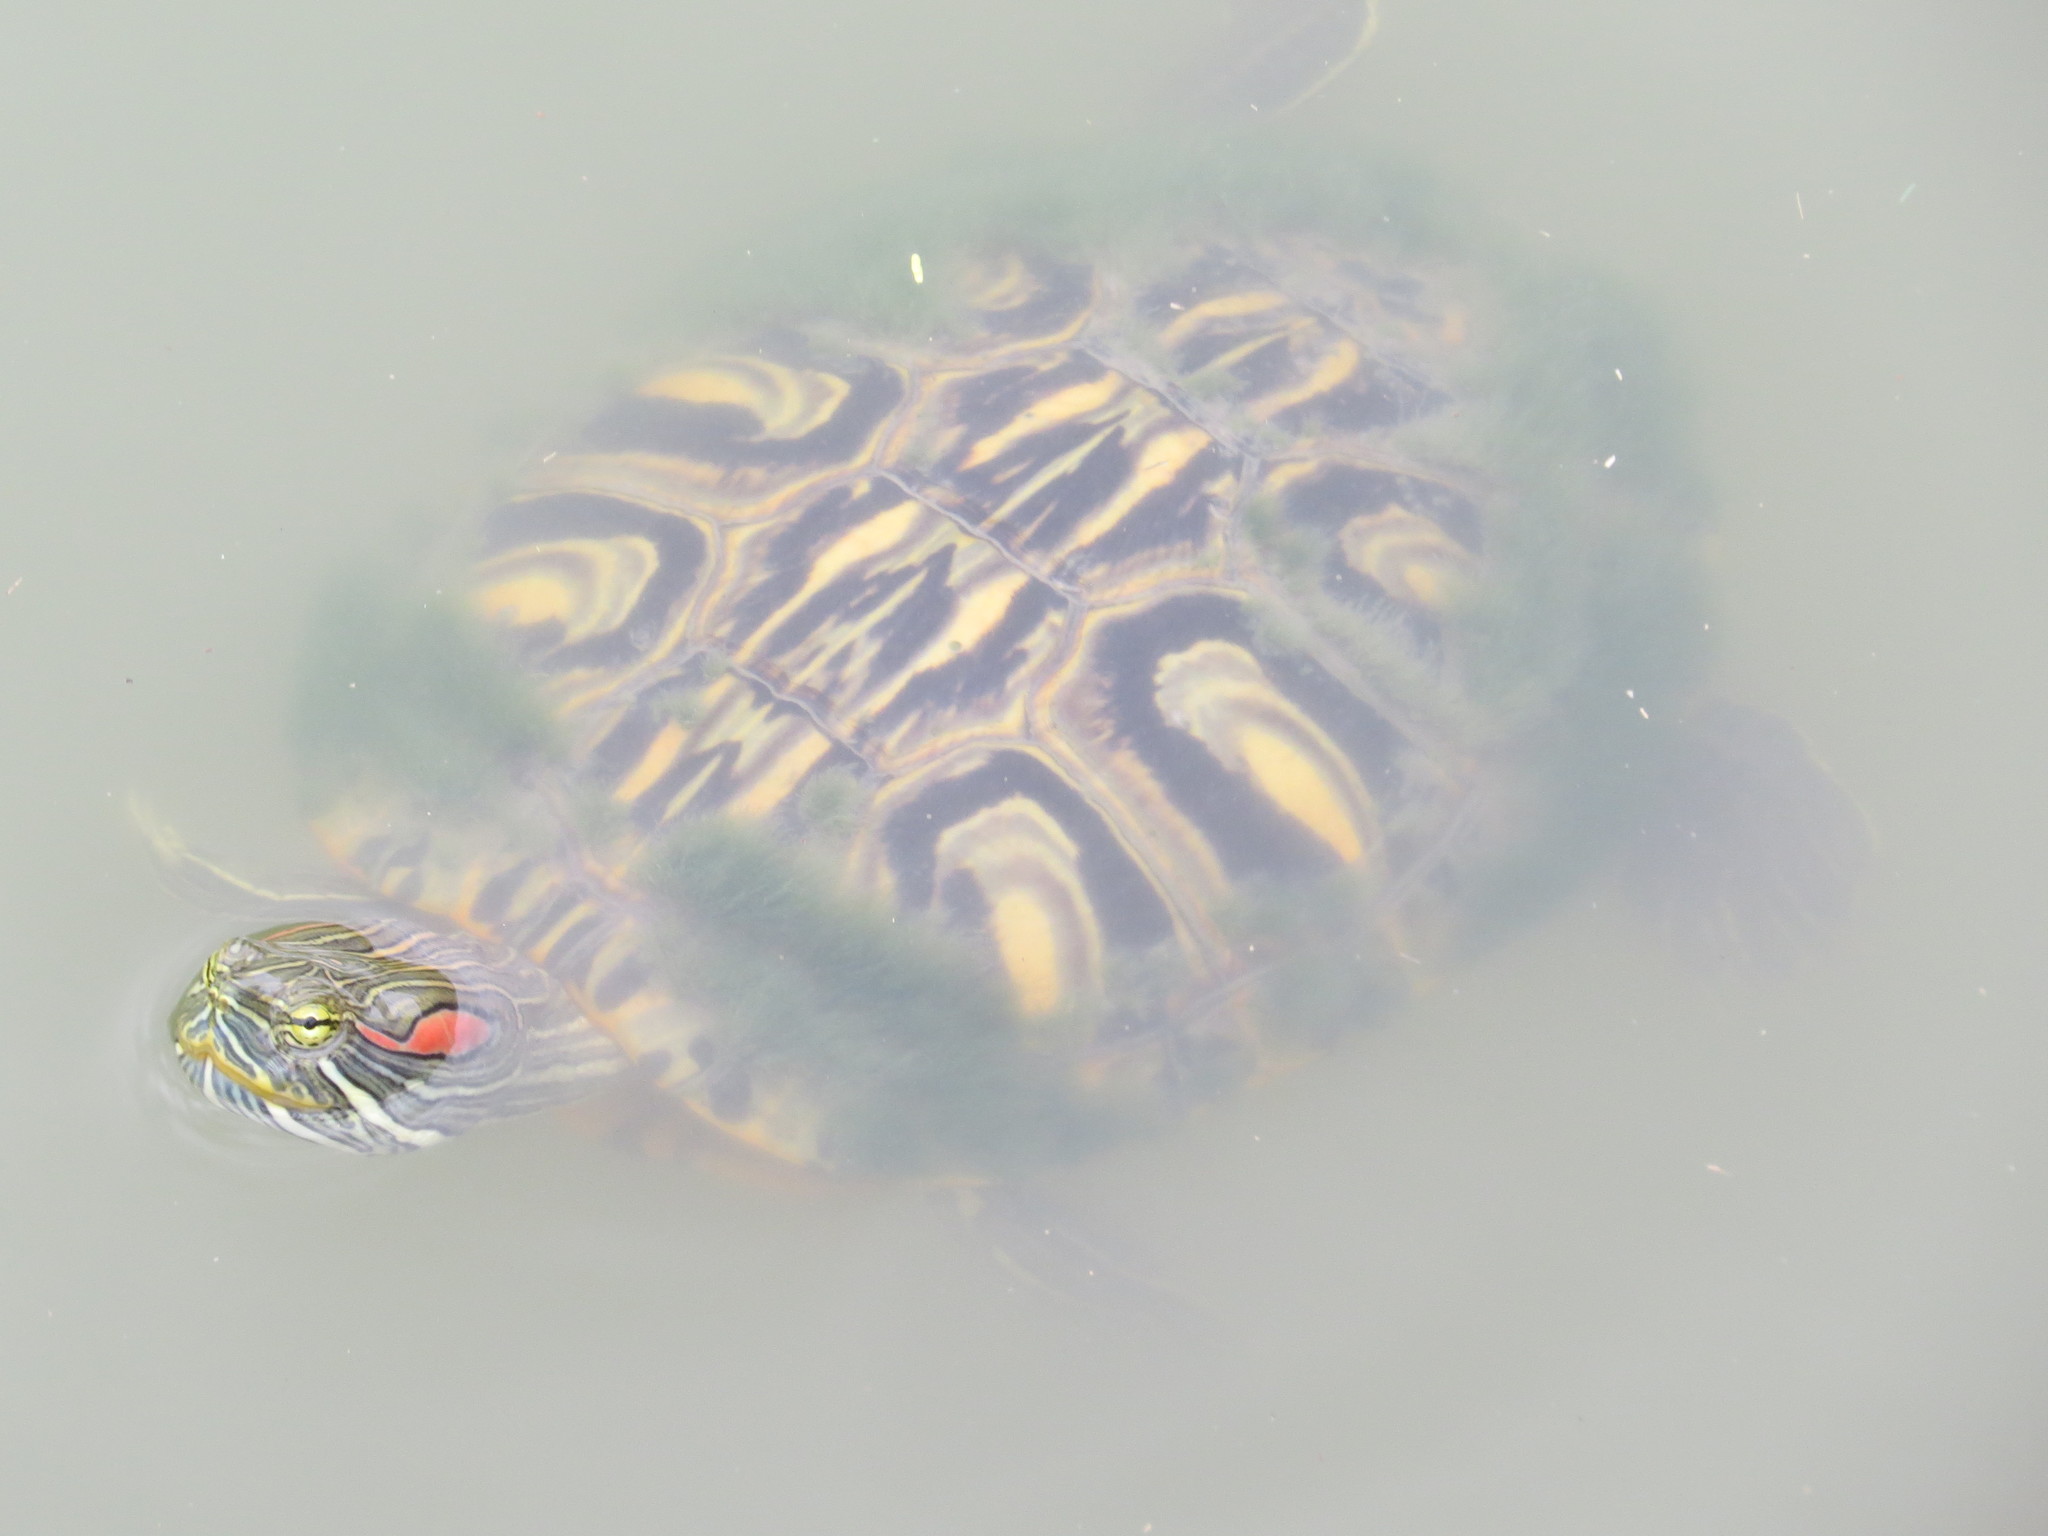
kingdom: Animalia
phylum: Chordata
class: Testudines
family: Emydidae
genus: Trachemys
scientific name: Trachemys scripta
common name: Slider
